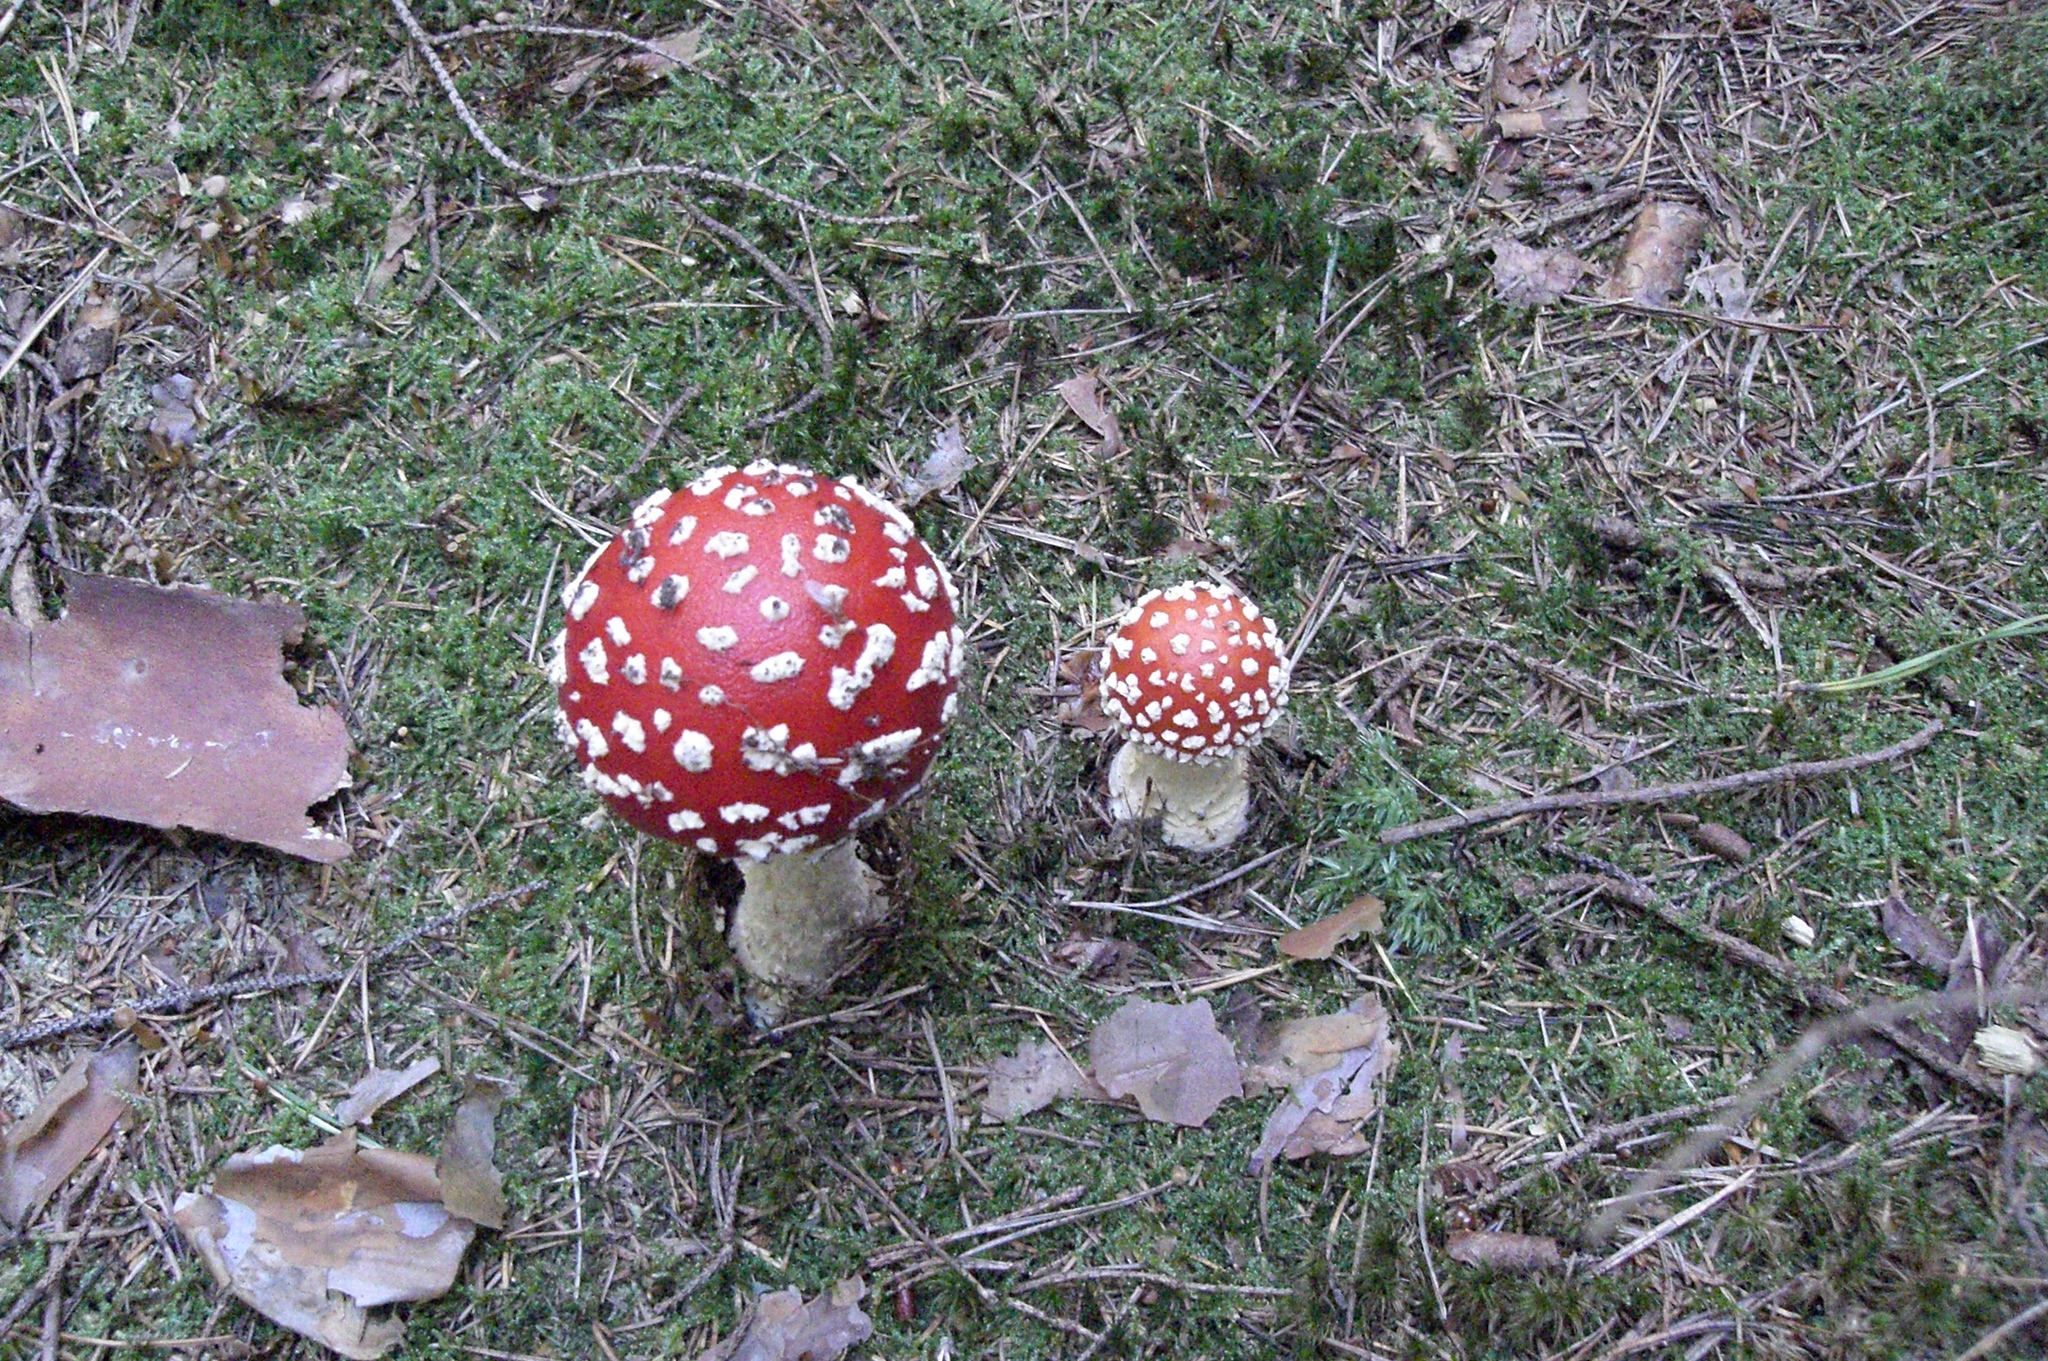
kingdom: Fungi
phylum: Basidiomycota
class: Agaricomycetes
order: Agaricales
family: Amanitaceae
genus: Amanita
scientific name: Amanita muscaria
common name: Fly agaric
